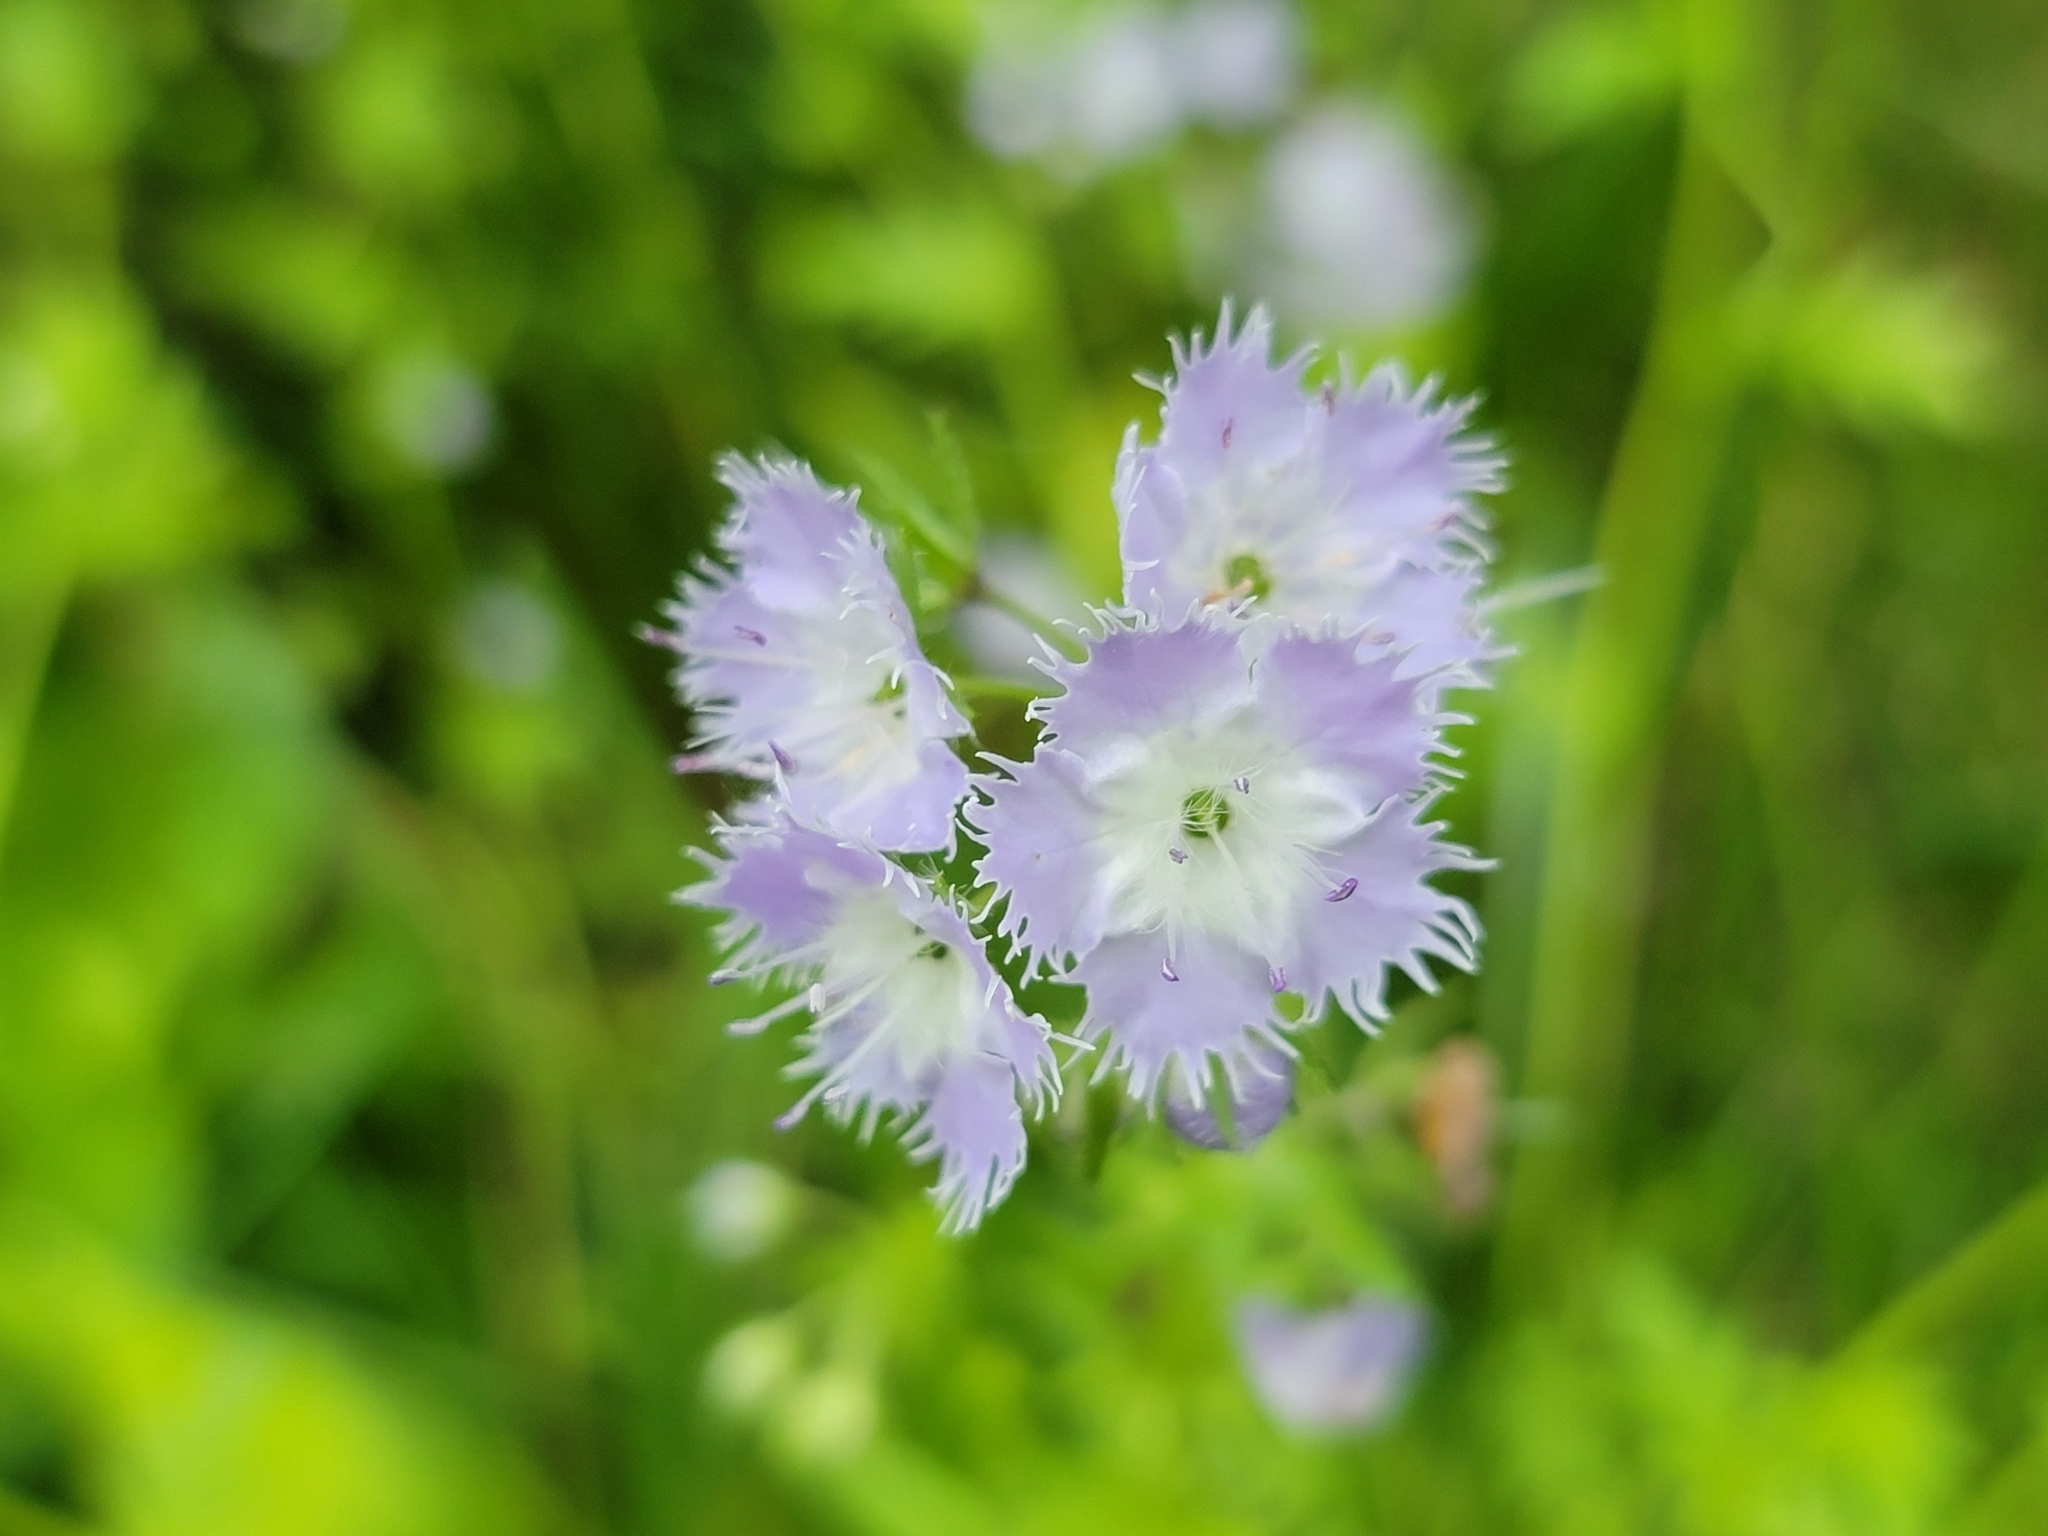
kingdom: Plantae
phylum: Tracheophyta
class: Magnoliopsida
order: Boraginales
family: Hydrophyllaceae
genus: Phacelia
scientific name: Phacelia purshii
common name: Miami-mist
